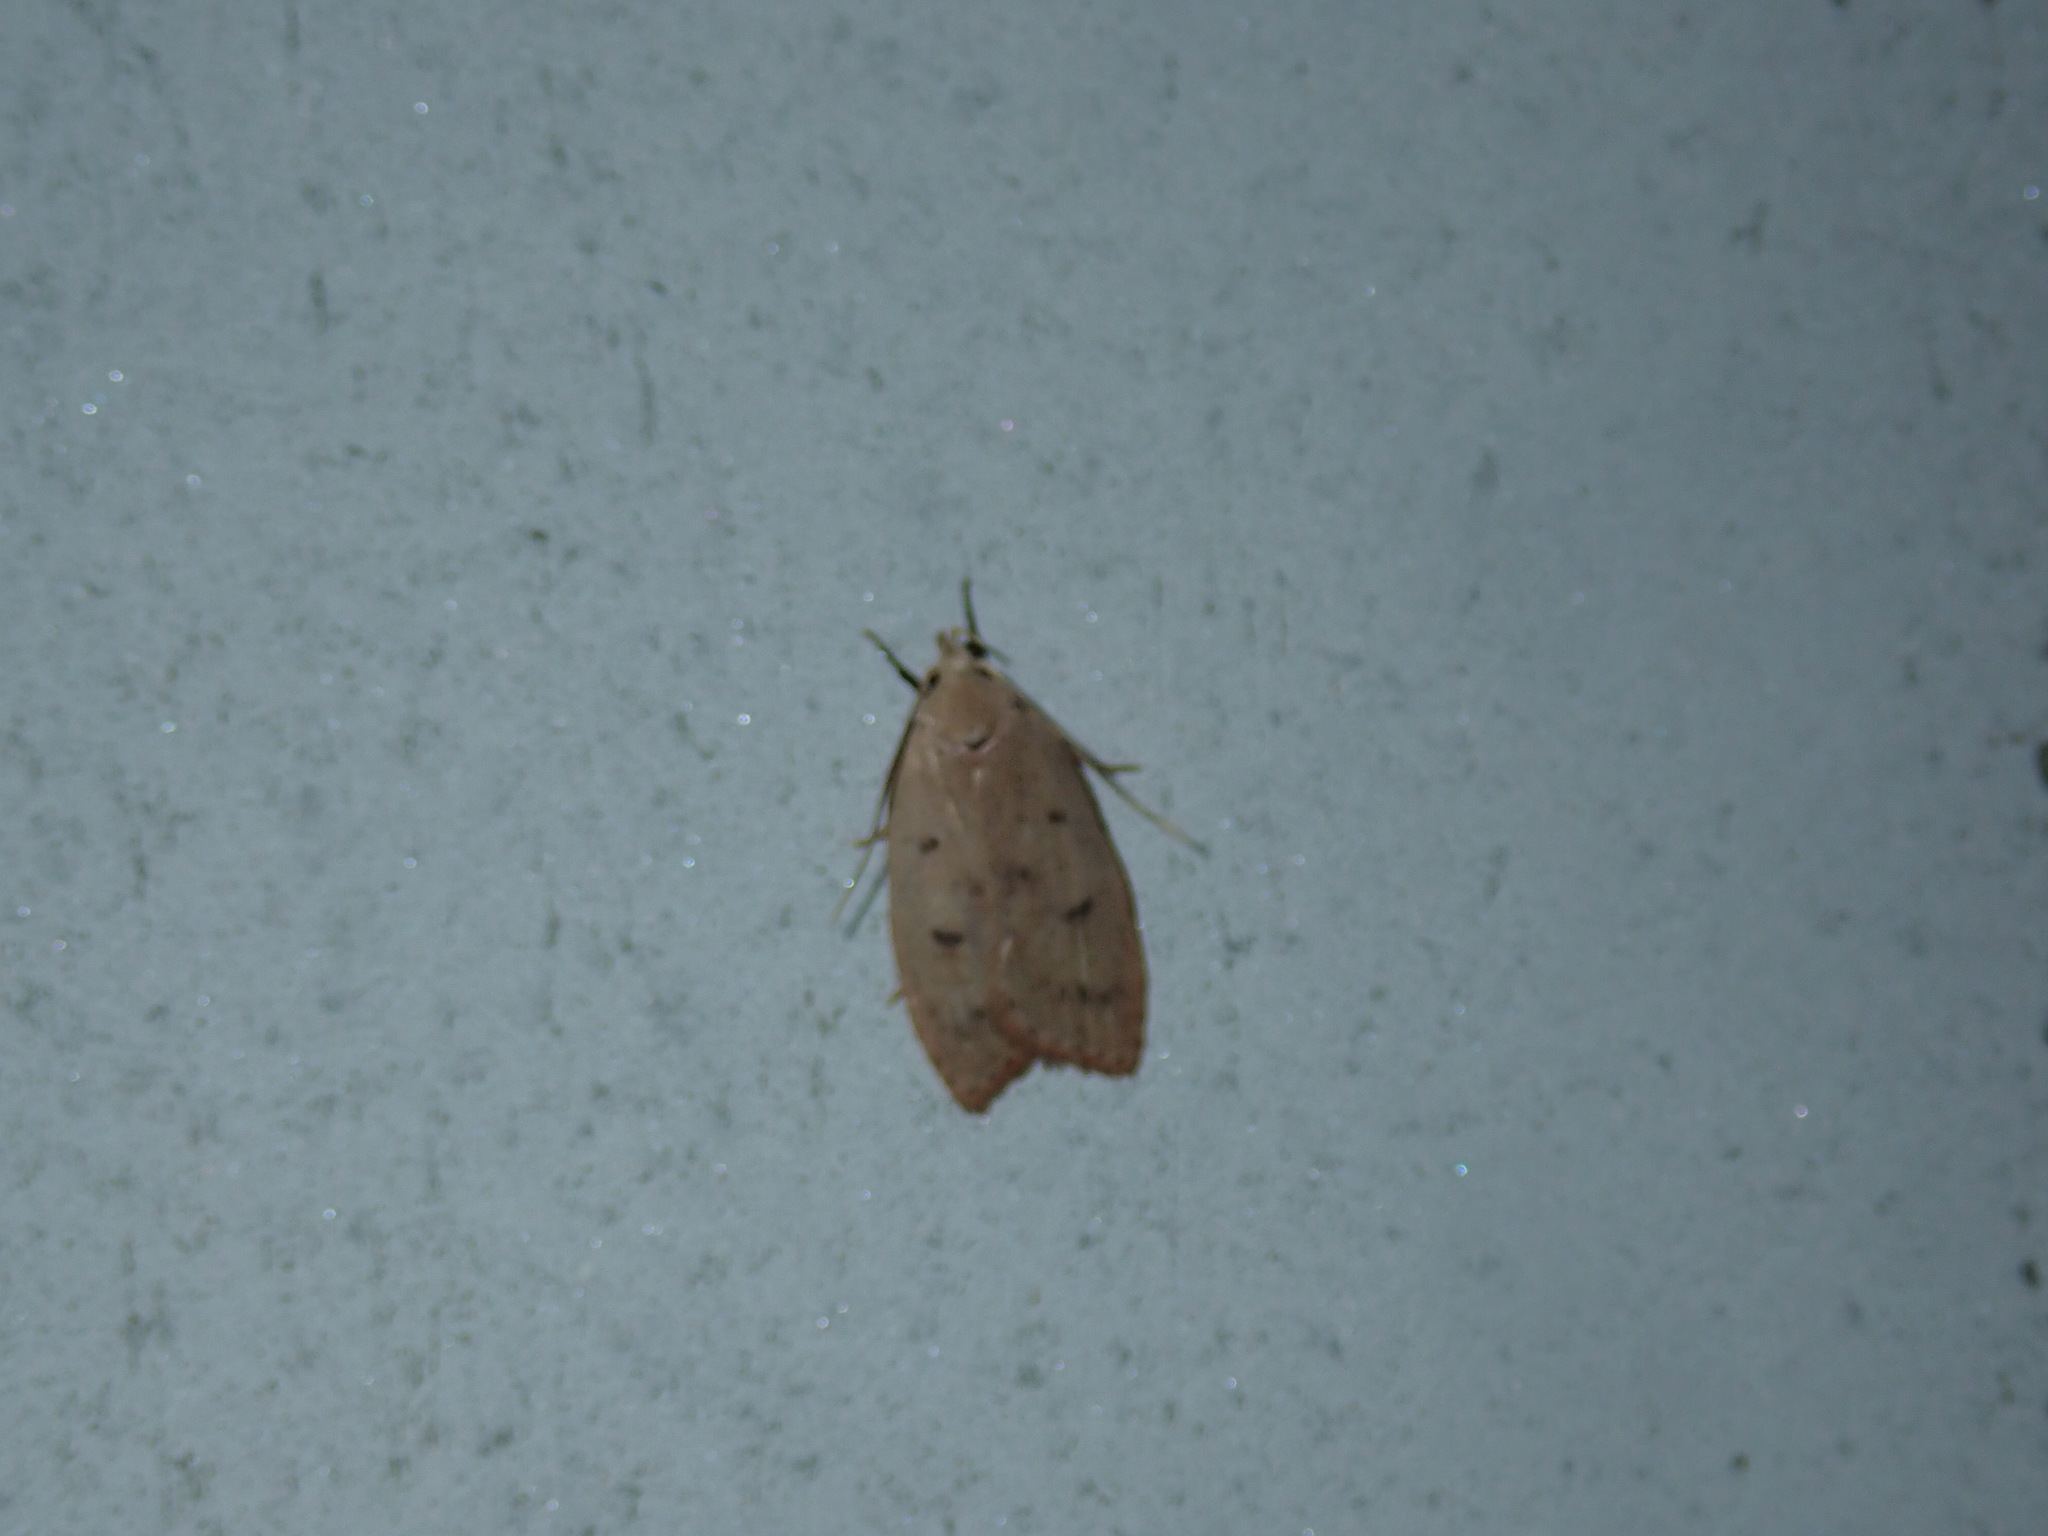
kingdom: Animalia
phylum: Arthropoda
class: Insecta
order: Lepidoptera
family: Peleopodidae
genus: Machimia
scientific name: Machimia tentoriferella
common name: Gold-striped leaftier moth
